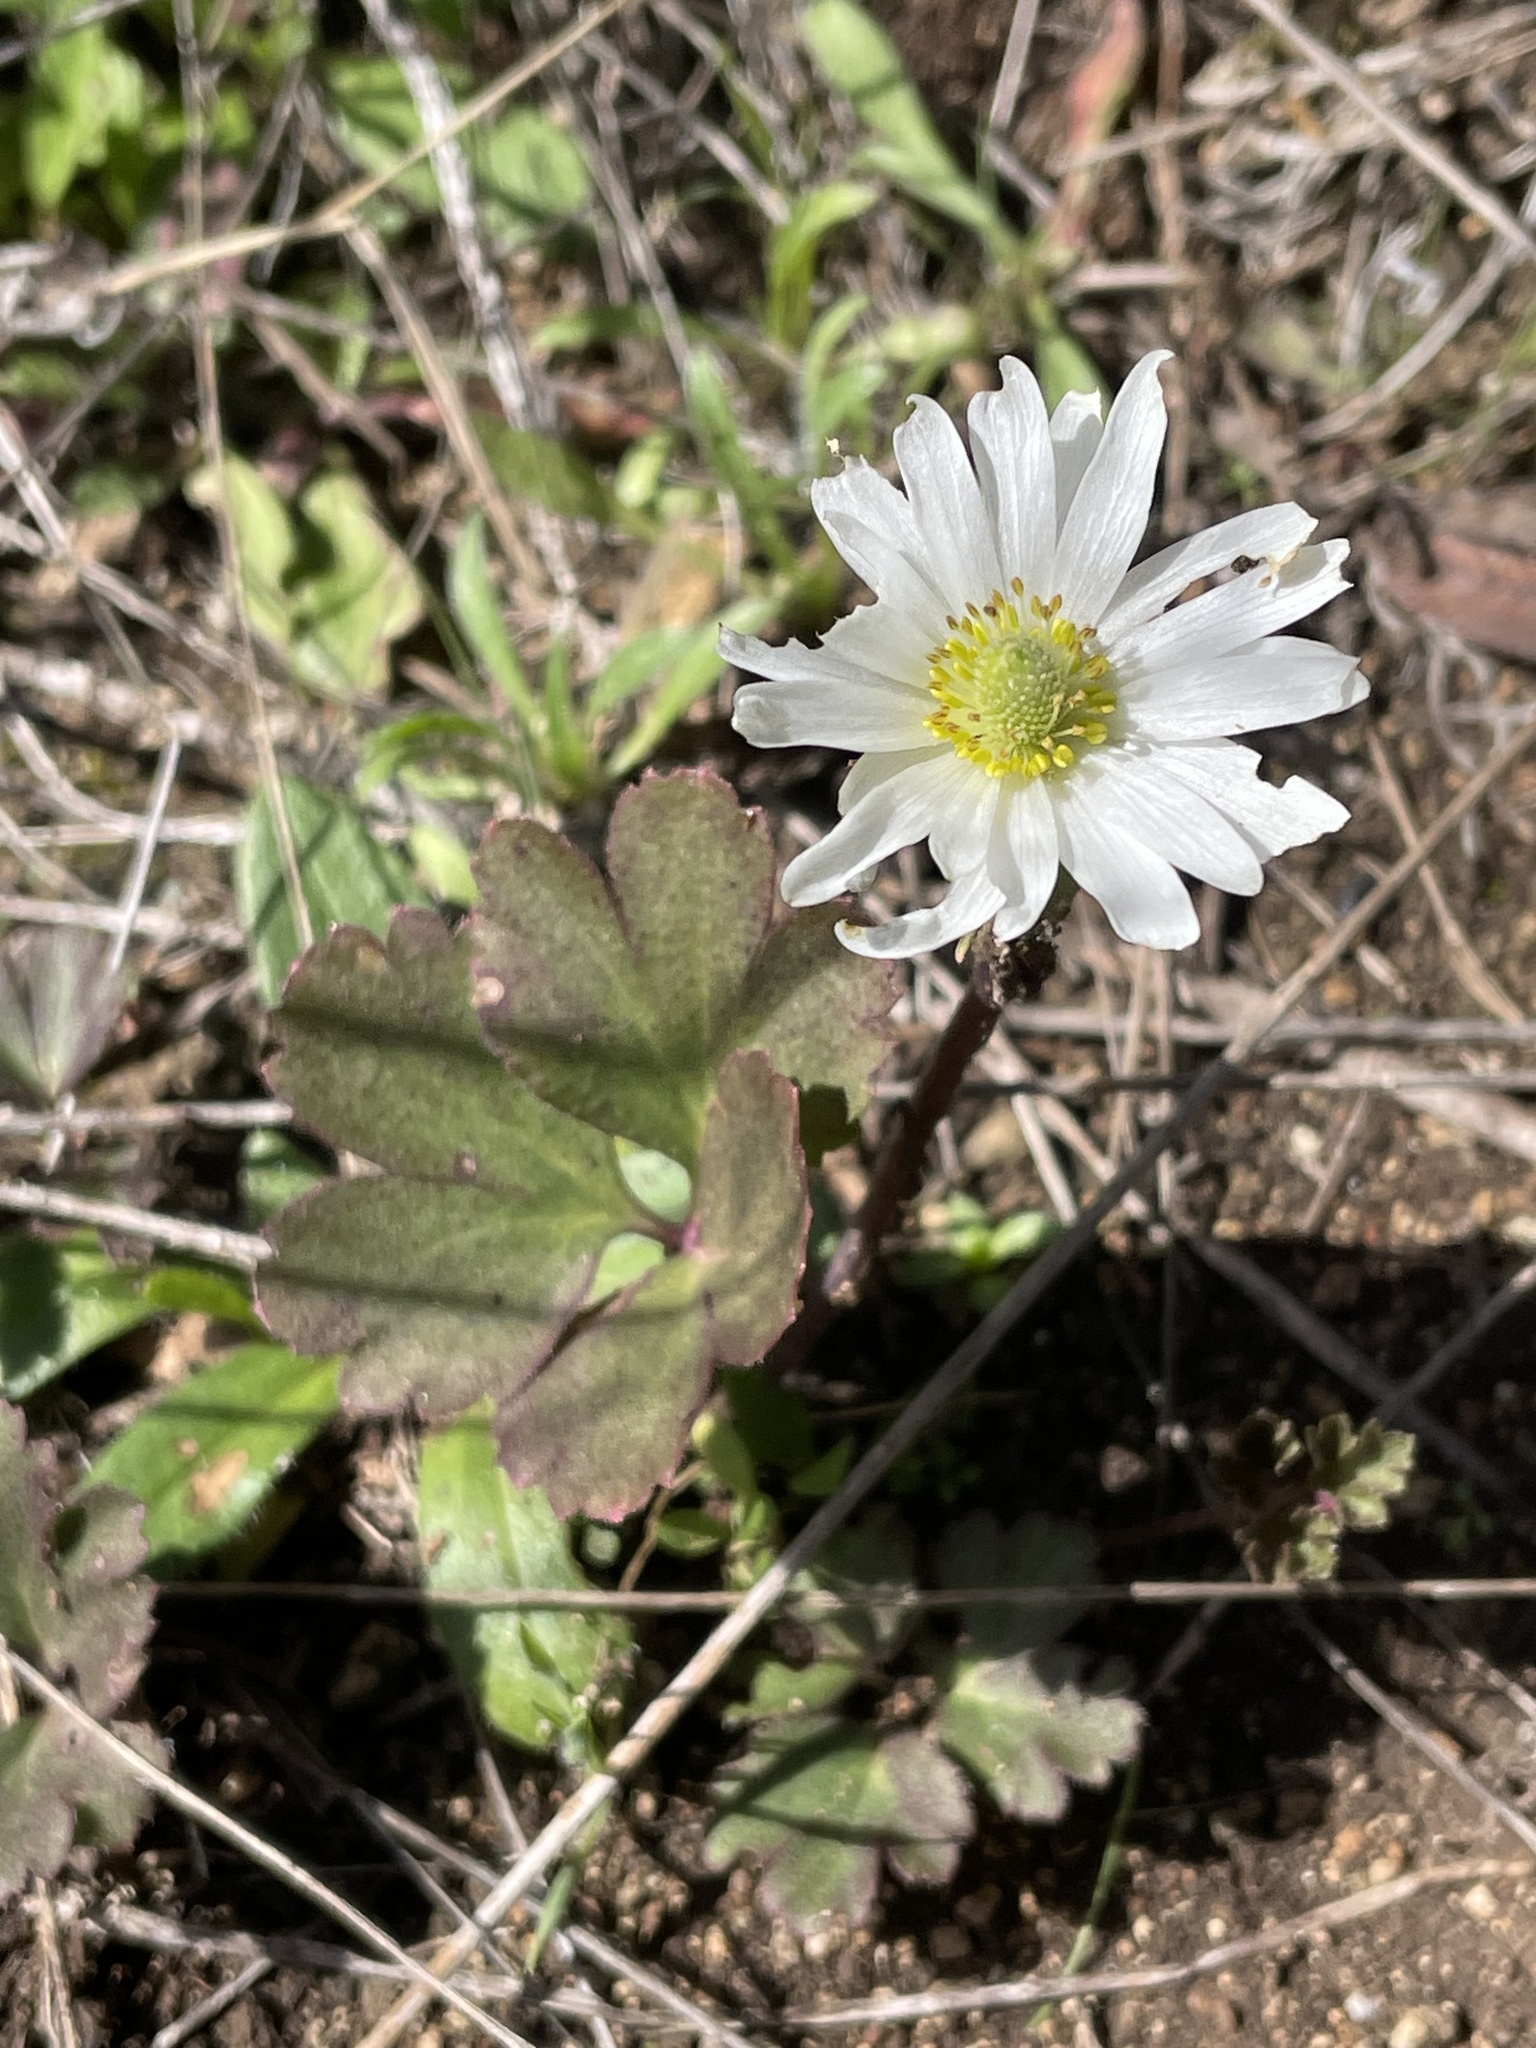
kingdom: Plantae
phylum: Tracheophyta
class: Magnoliopsida
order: Ranunculales
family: Ranunculaceae
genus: Anemone
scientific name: Anemone berlandieri
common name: Ten-petal anemone
